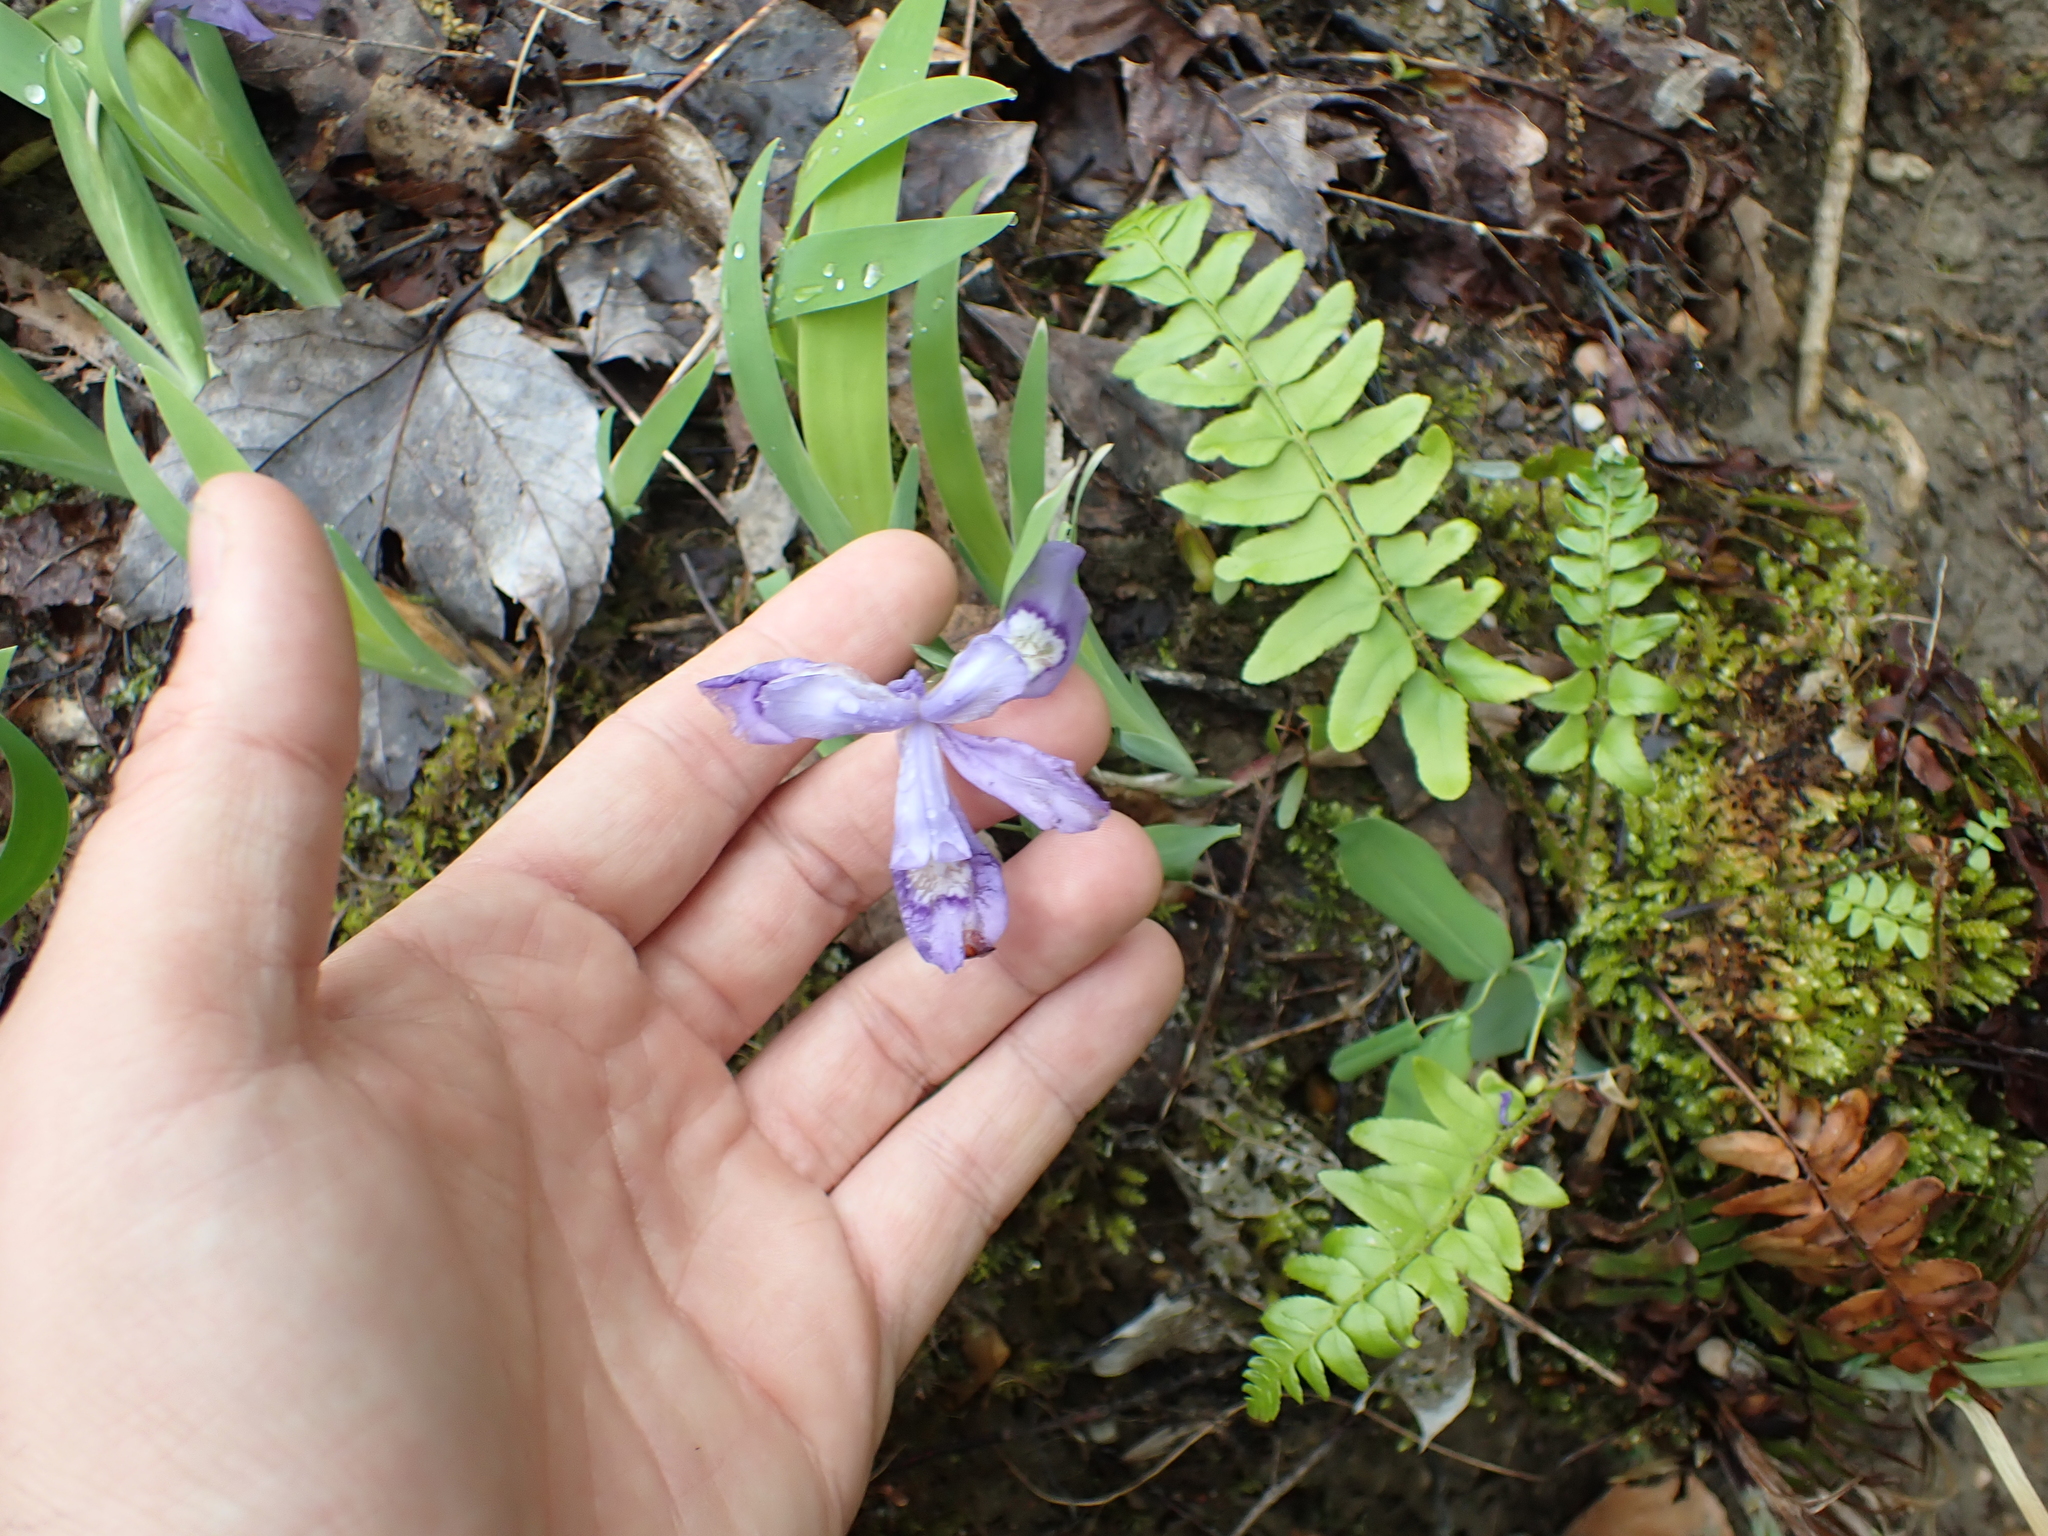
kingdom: Plantae
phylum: Tracheophyta
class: Liliopsida
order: Asparagales
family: Iridaceae
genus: Iris
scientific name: Iris cristata
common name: Crested iris
